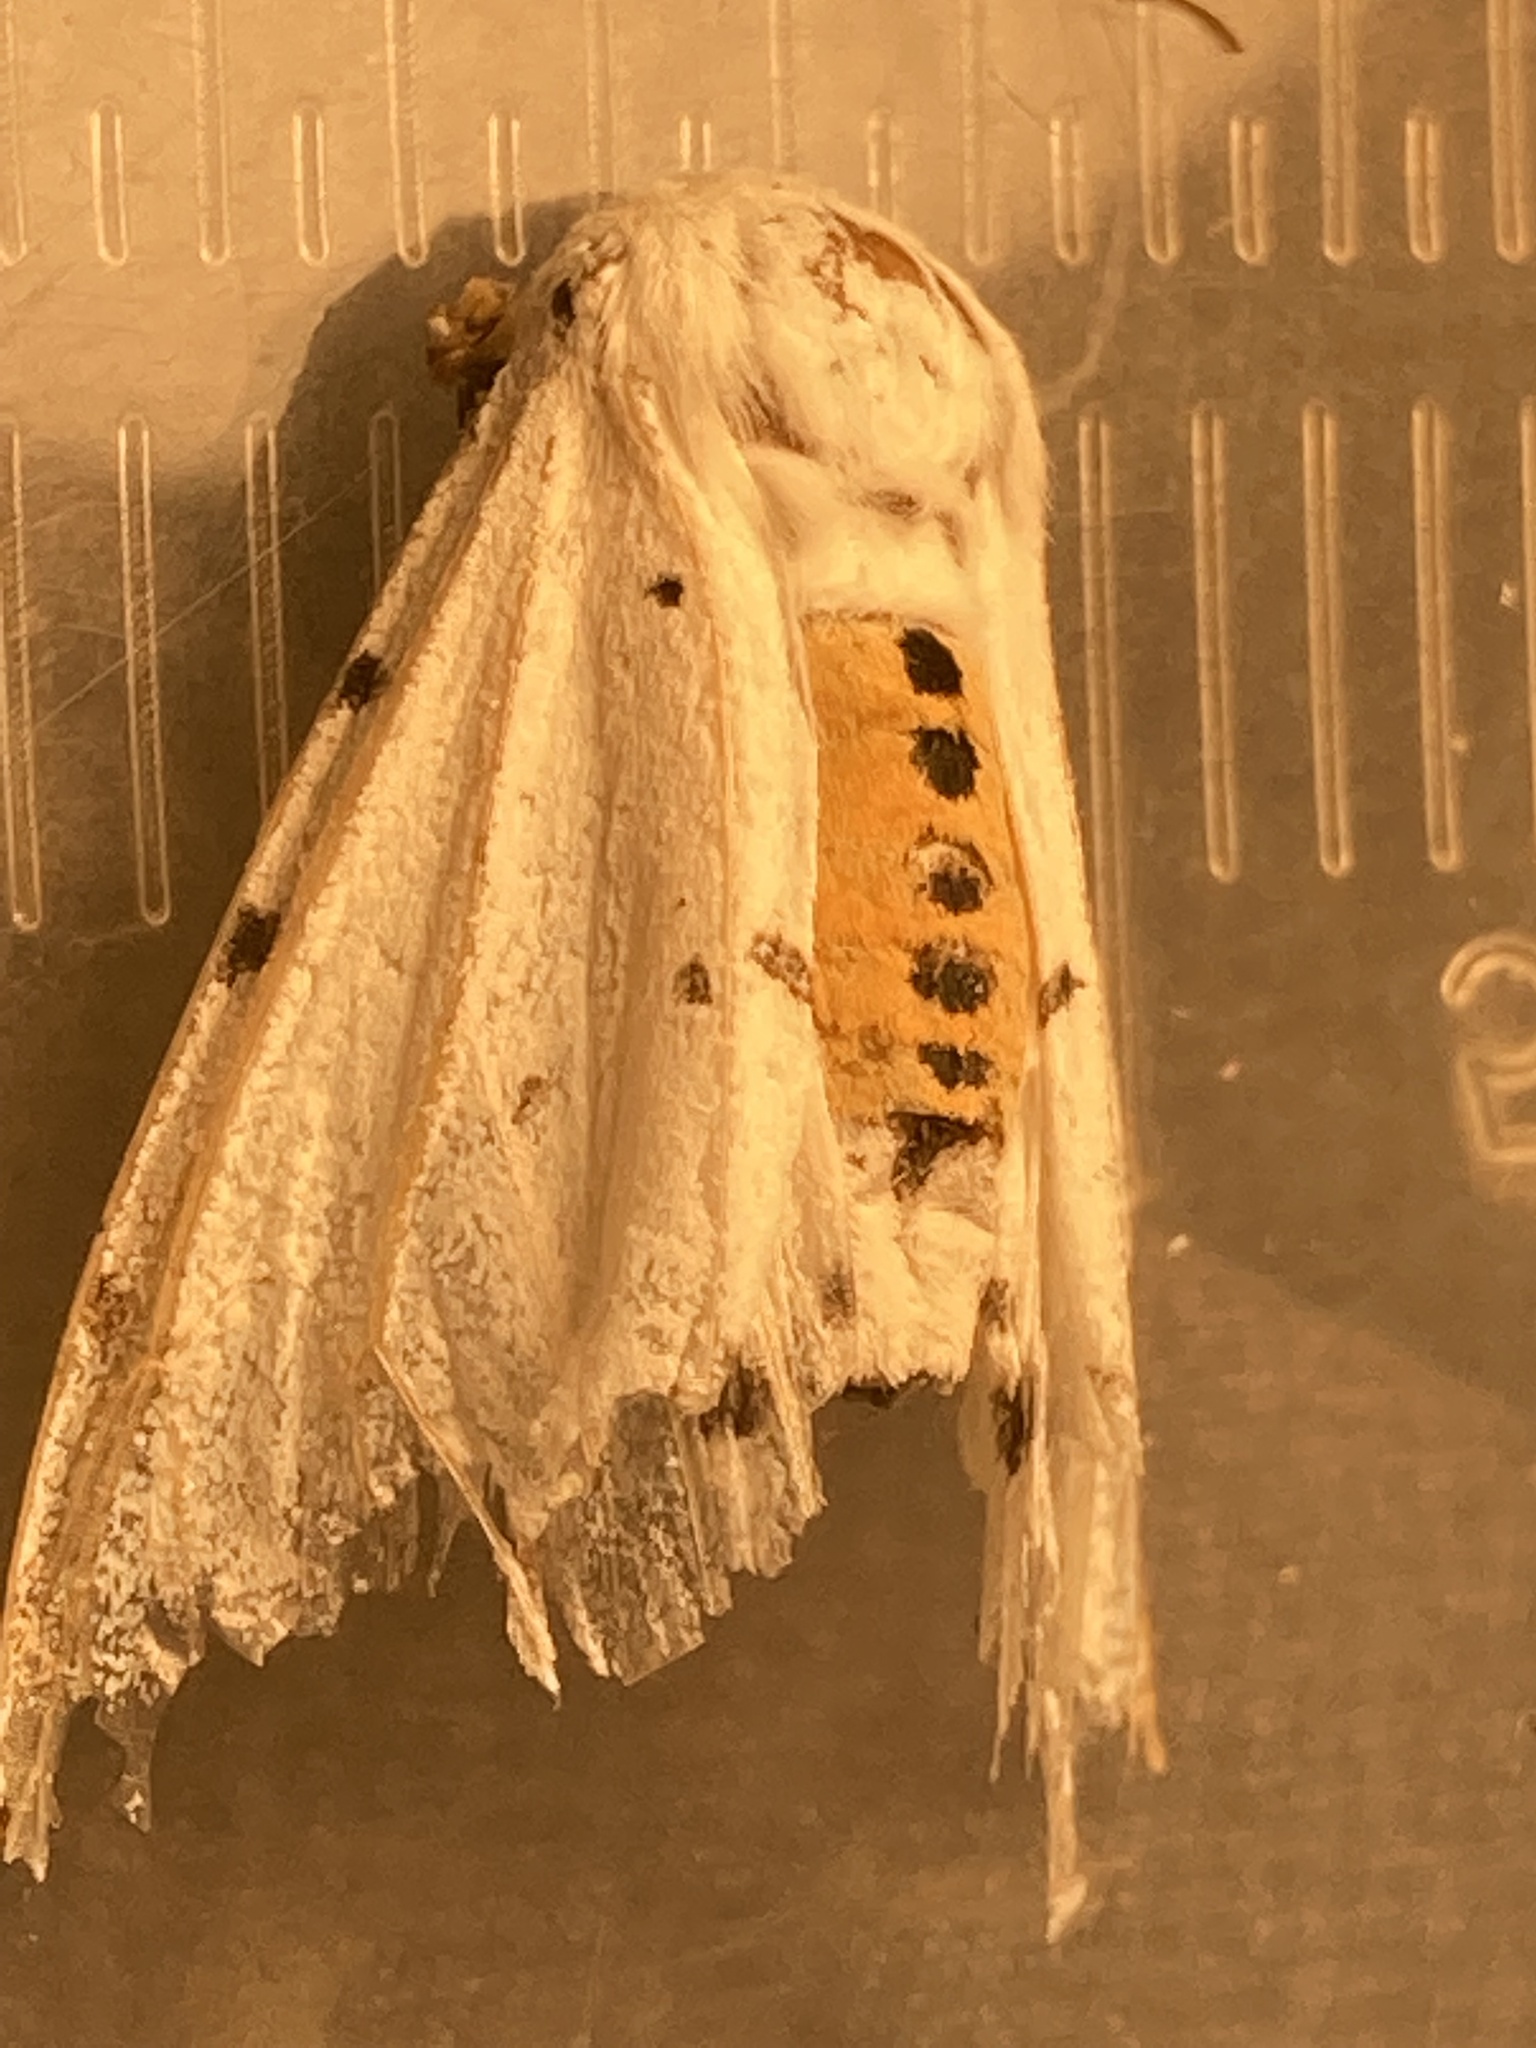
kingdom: Animalia
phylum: Arthropoda
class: Insecta
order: Lepidoptera
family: Erebidae
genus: Estigmene
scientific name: Estigmene acrea
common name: Salt marsh moth
